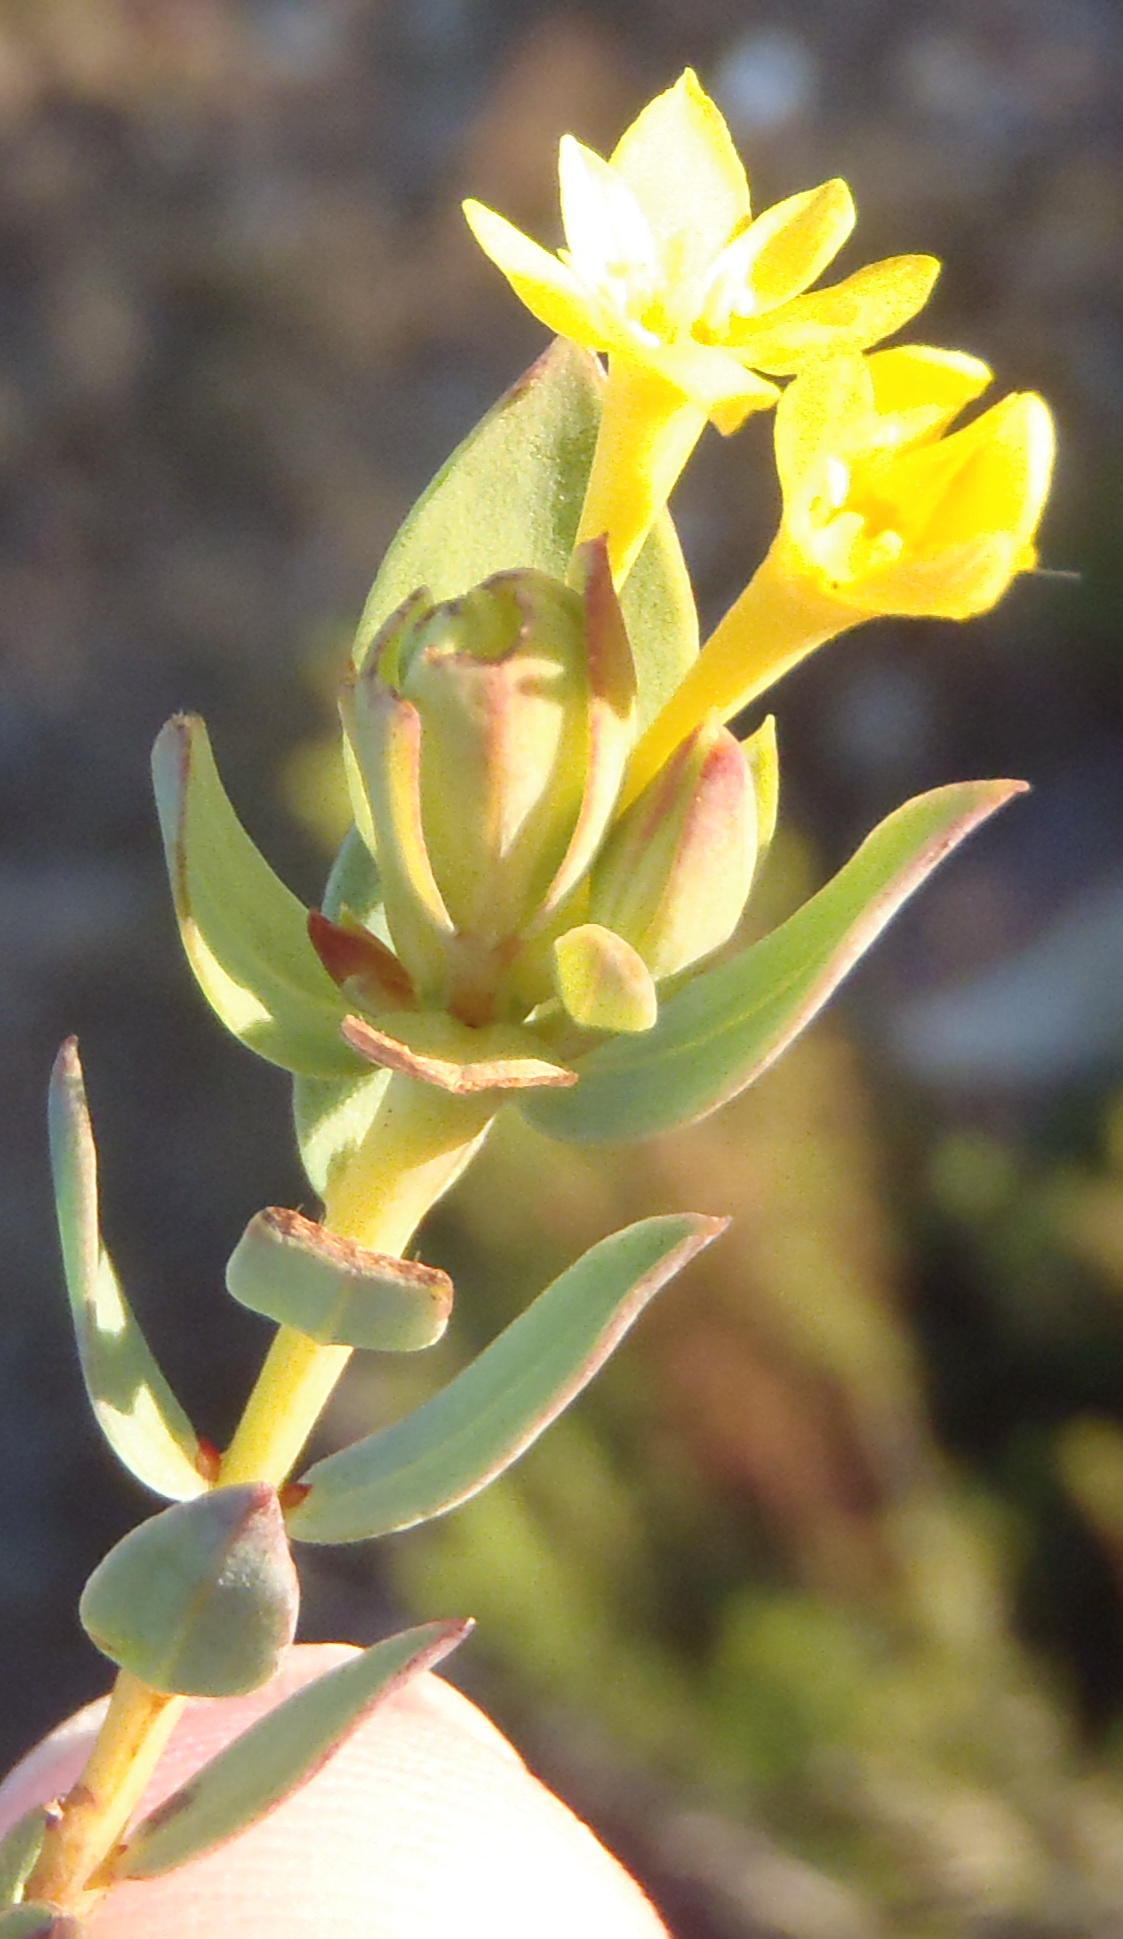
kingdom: Plantae
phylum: Tracheophyta
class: Magnoliopsida
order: Malvales
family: Thymelaeaceae
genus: Gnidia
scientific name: Gnidia juniperifolia
